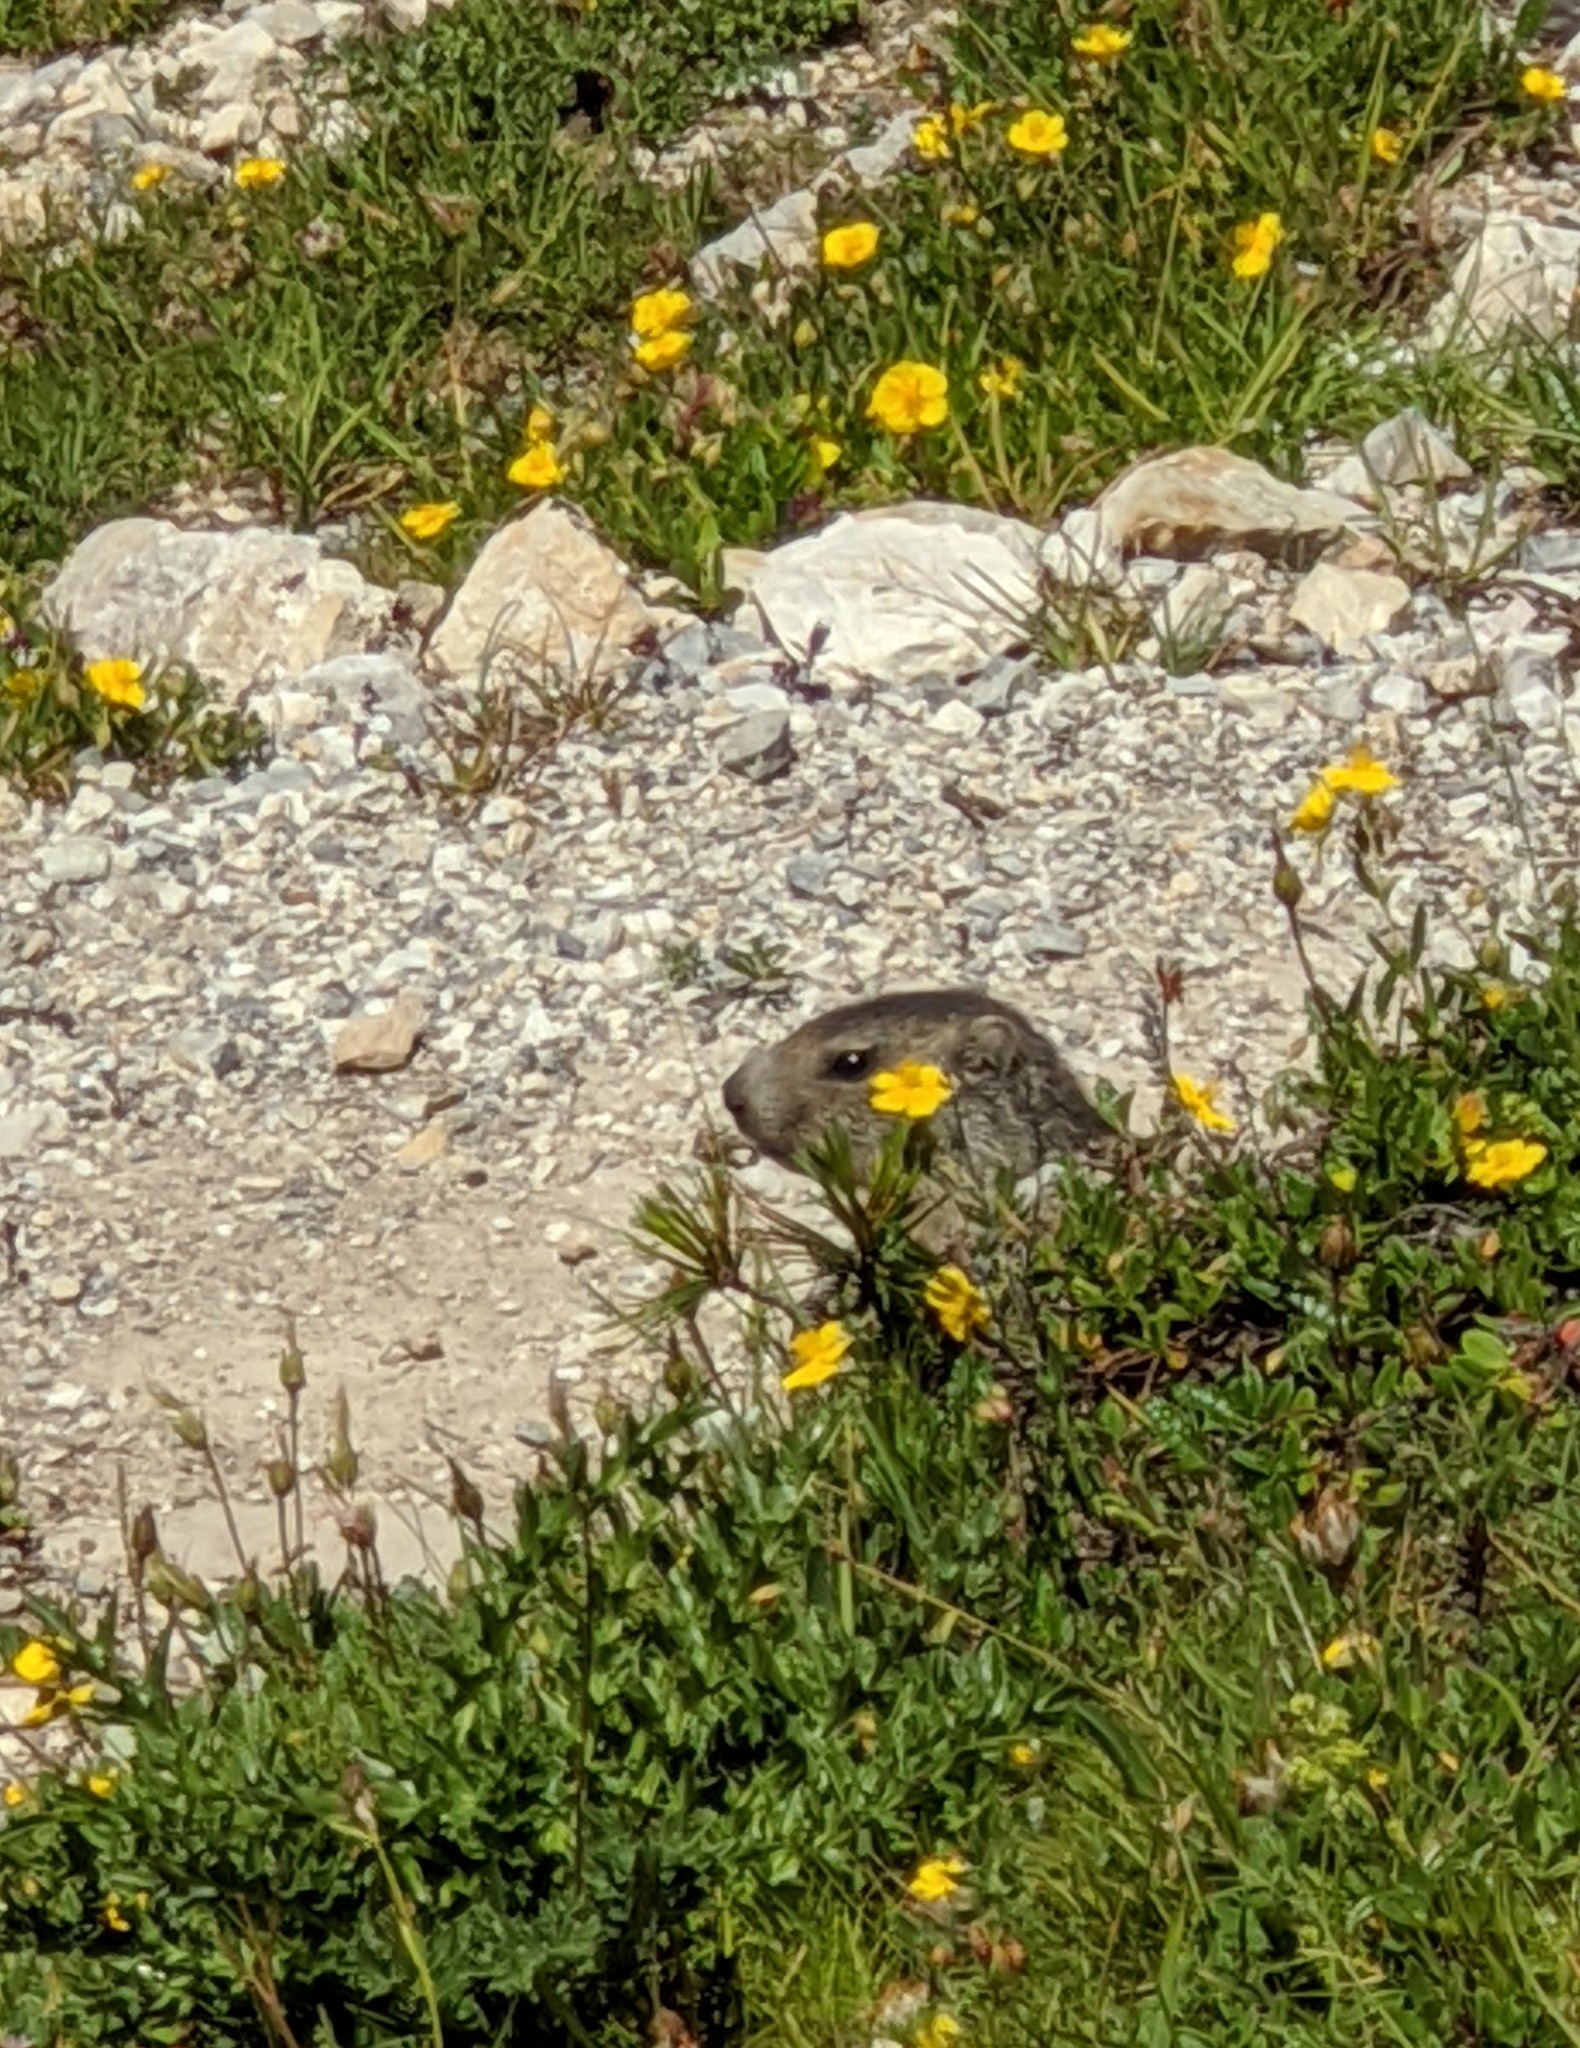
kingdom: Animalia
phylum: Chordata
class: Mammalia
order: Rodentia
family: Sciuridae
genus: Marmota
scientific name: Marmota marmota
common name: Alpine marmot
